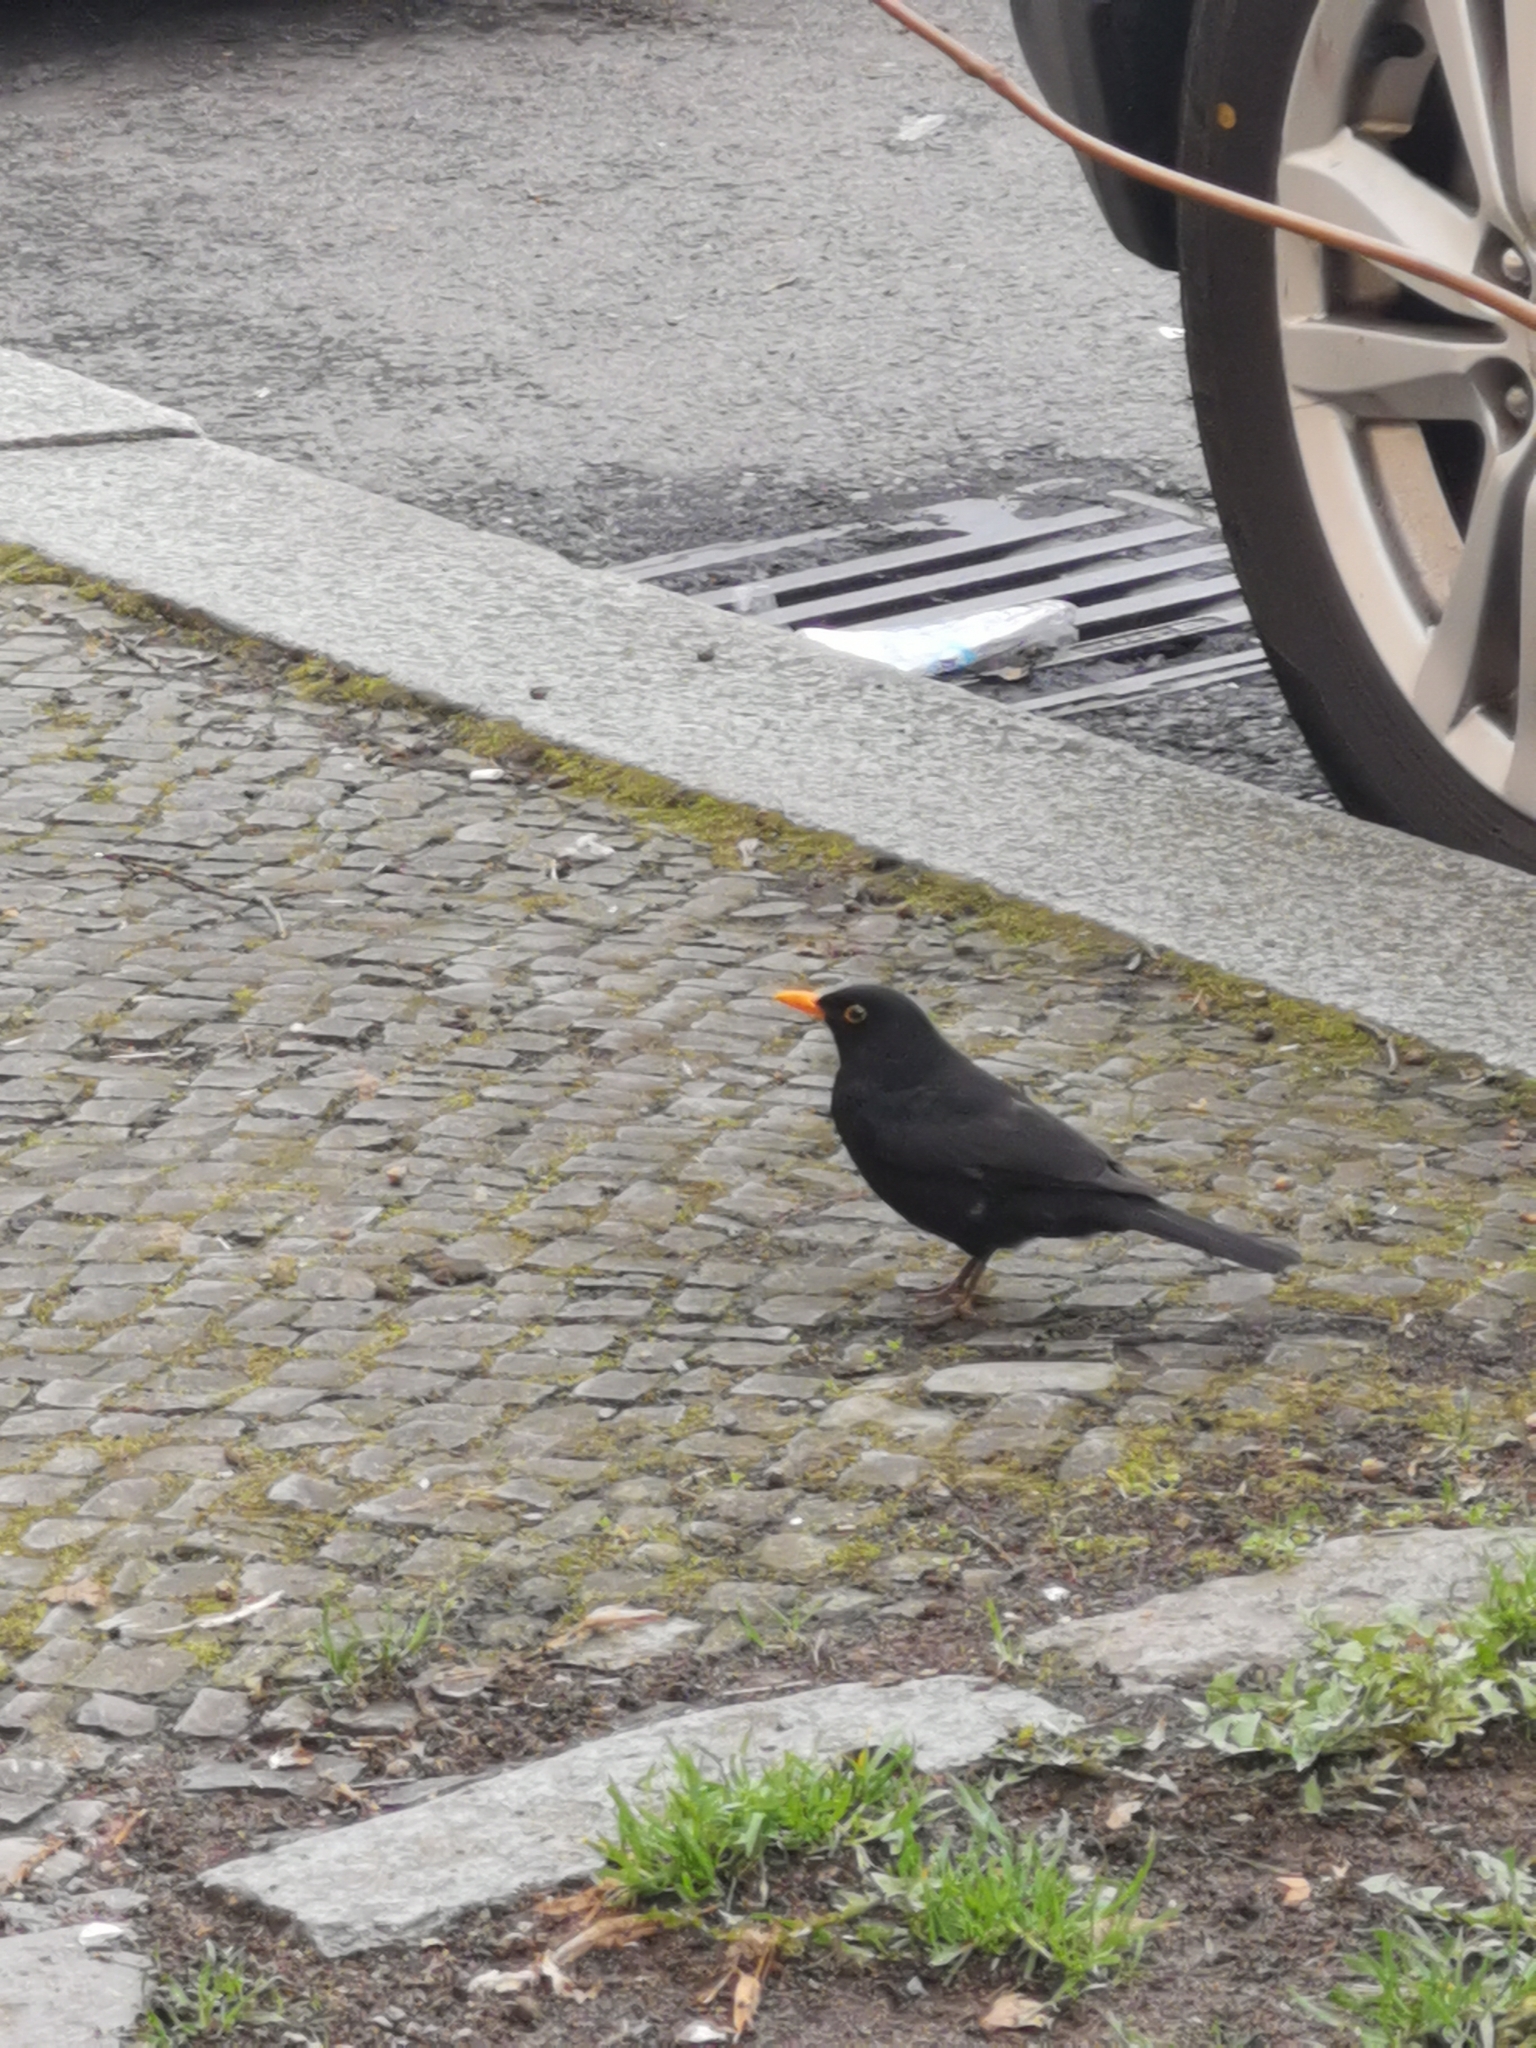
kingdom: Animalia
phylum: Chordata
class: Aves
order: Passeriformes
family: Turdidae
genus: Turdus
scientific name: Turdus merula
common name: Common blackbird
